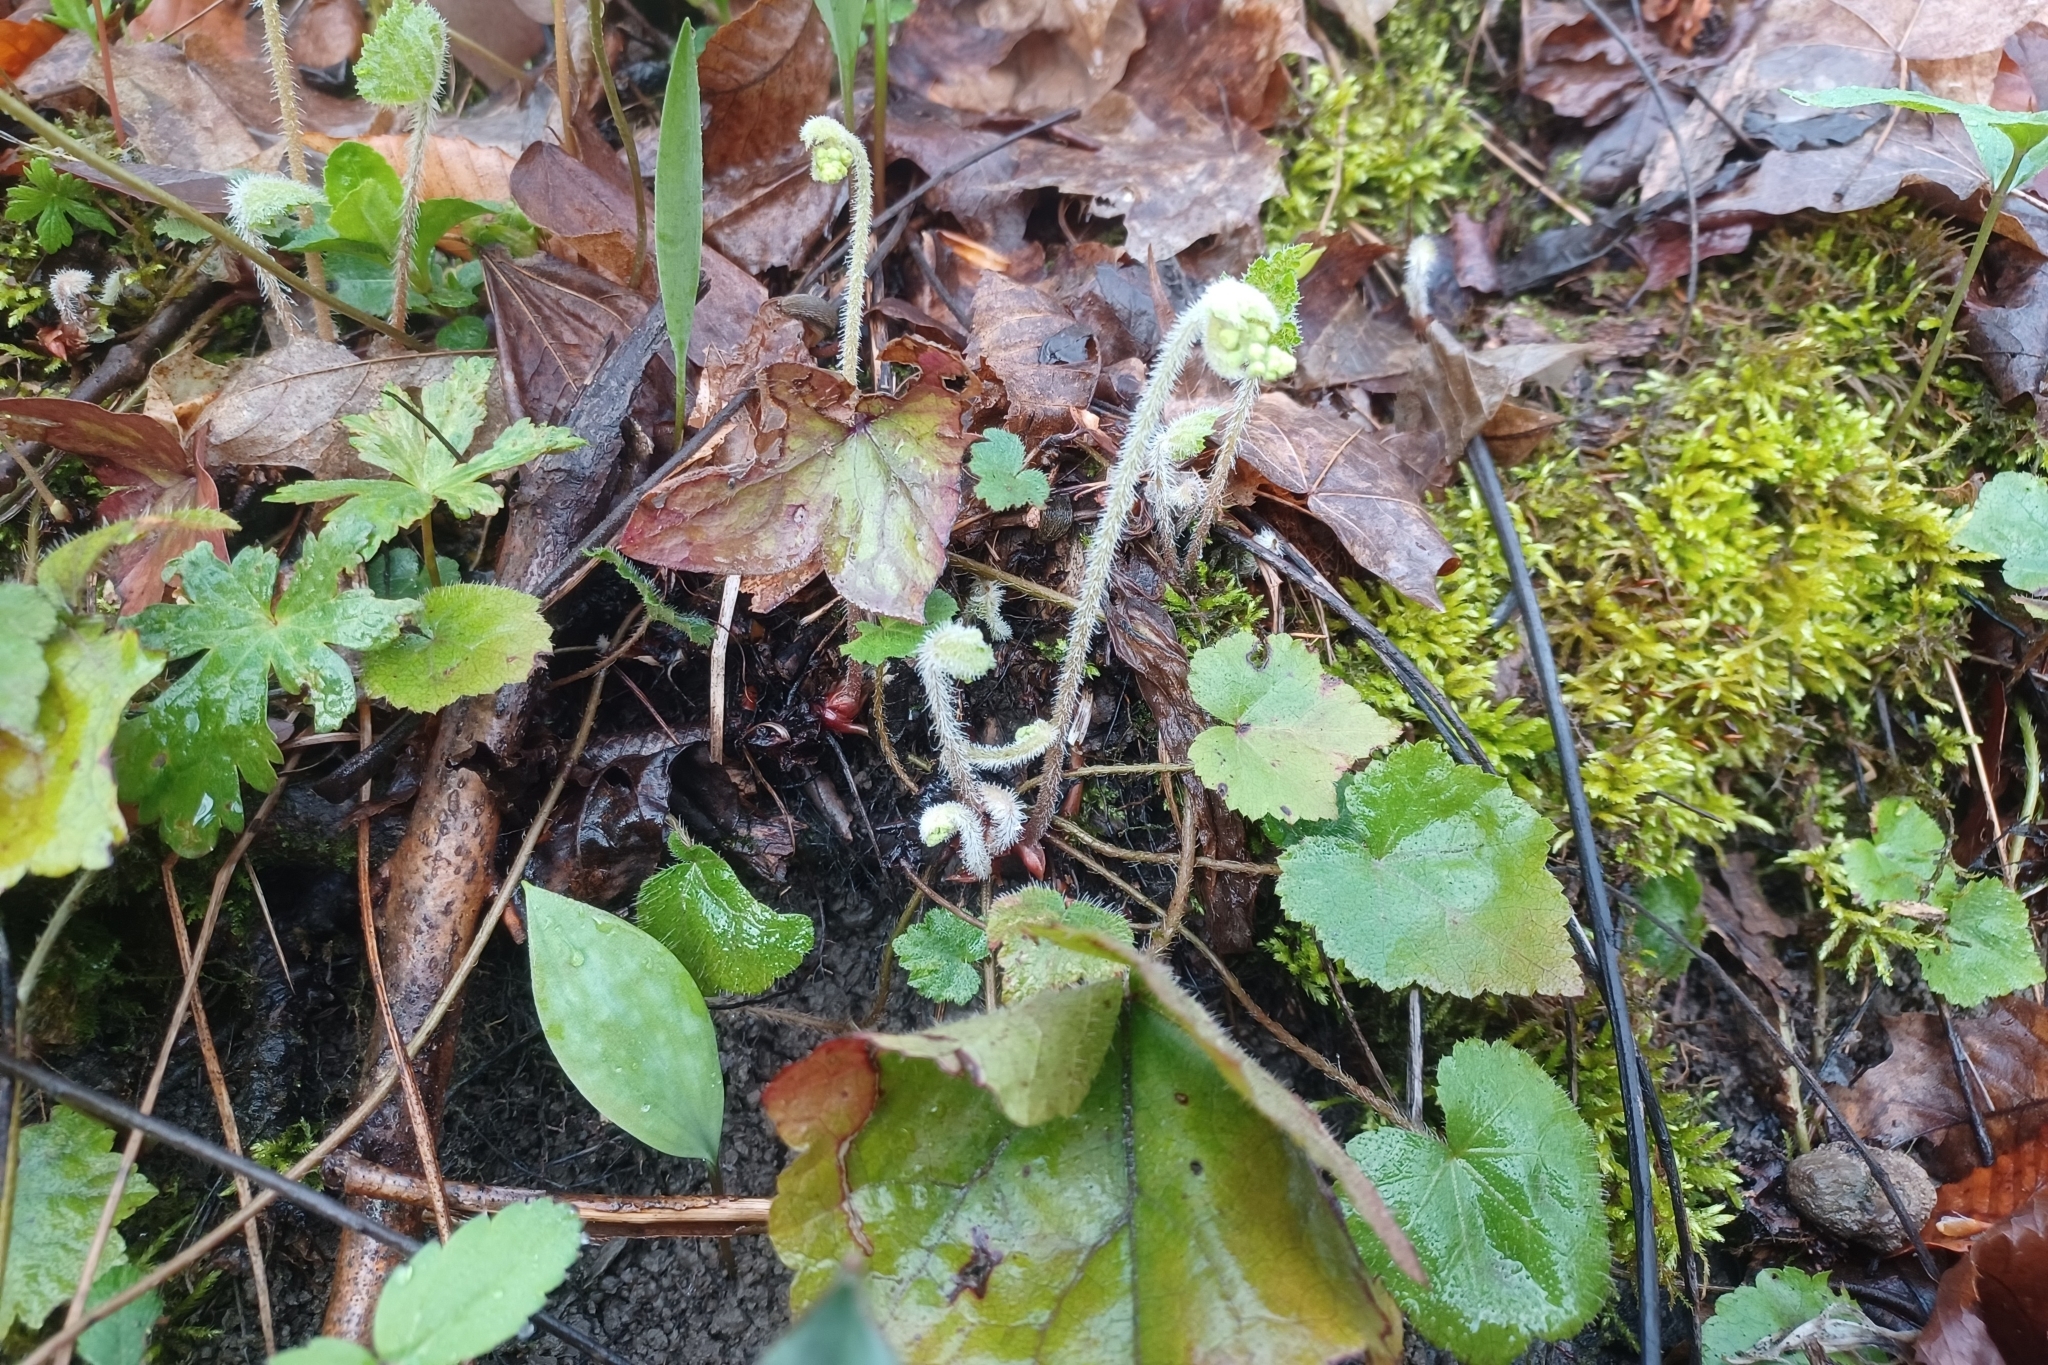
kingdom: Plantae
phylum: Tracheophyta
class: Magnoliopsida
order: Saxifragales
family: Saxifragaceae
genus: Tiarella
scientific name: Tiarella stolonifera
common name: Stoloniferous foamflower
